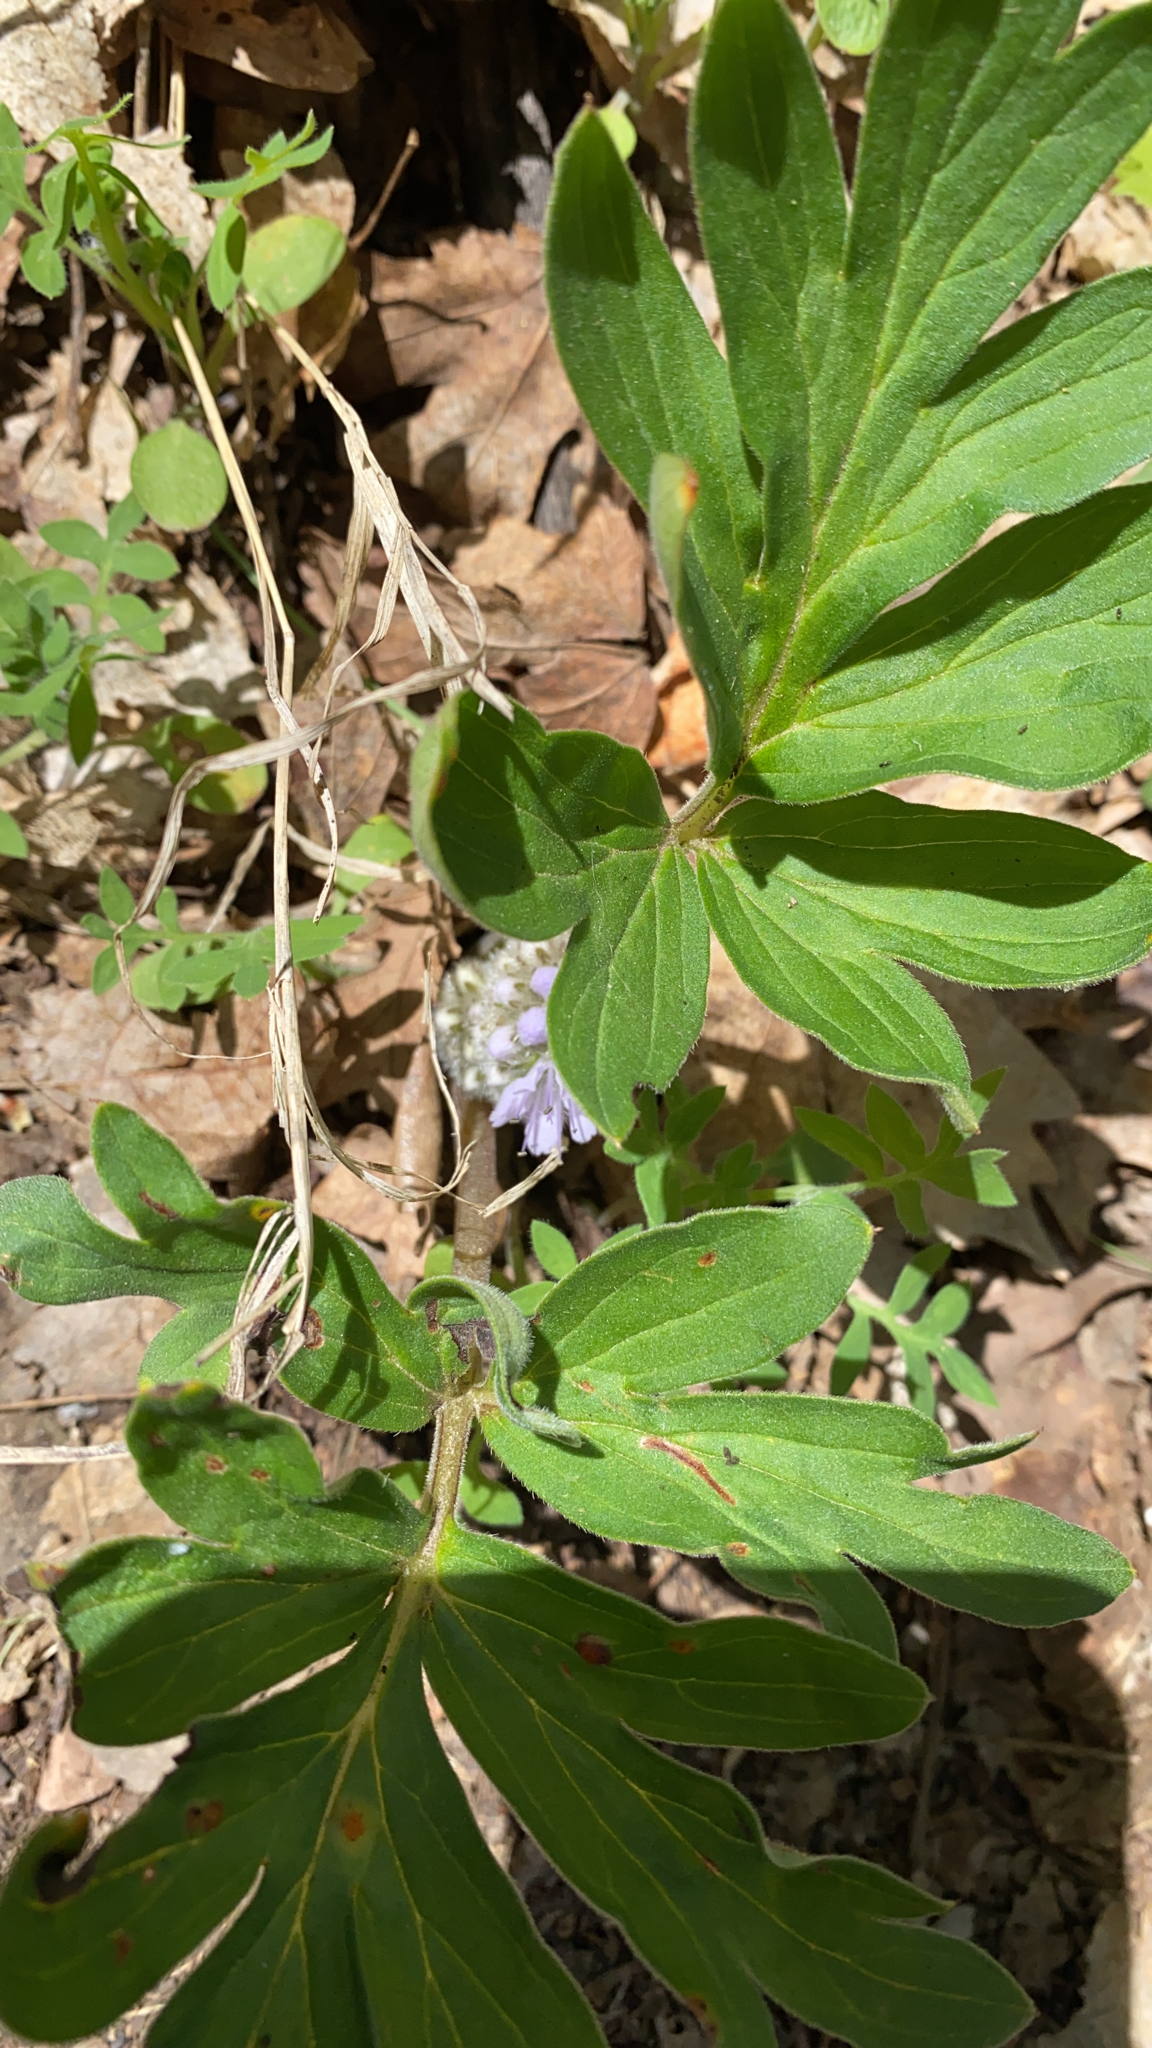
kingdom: Plantae
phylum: Tracheophyta
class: Magnoliopsida
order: Boraginales
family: Hydrophyllaceae
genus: Hydrophyllum
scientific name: Hydrophyllum capitatum
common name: Woollen-breeches
